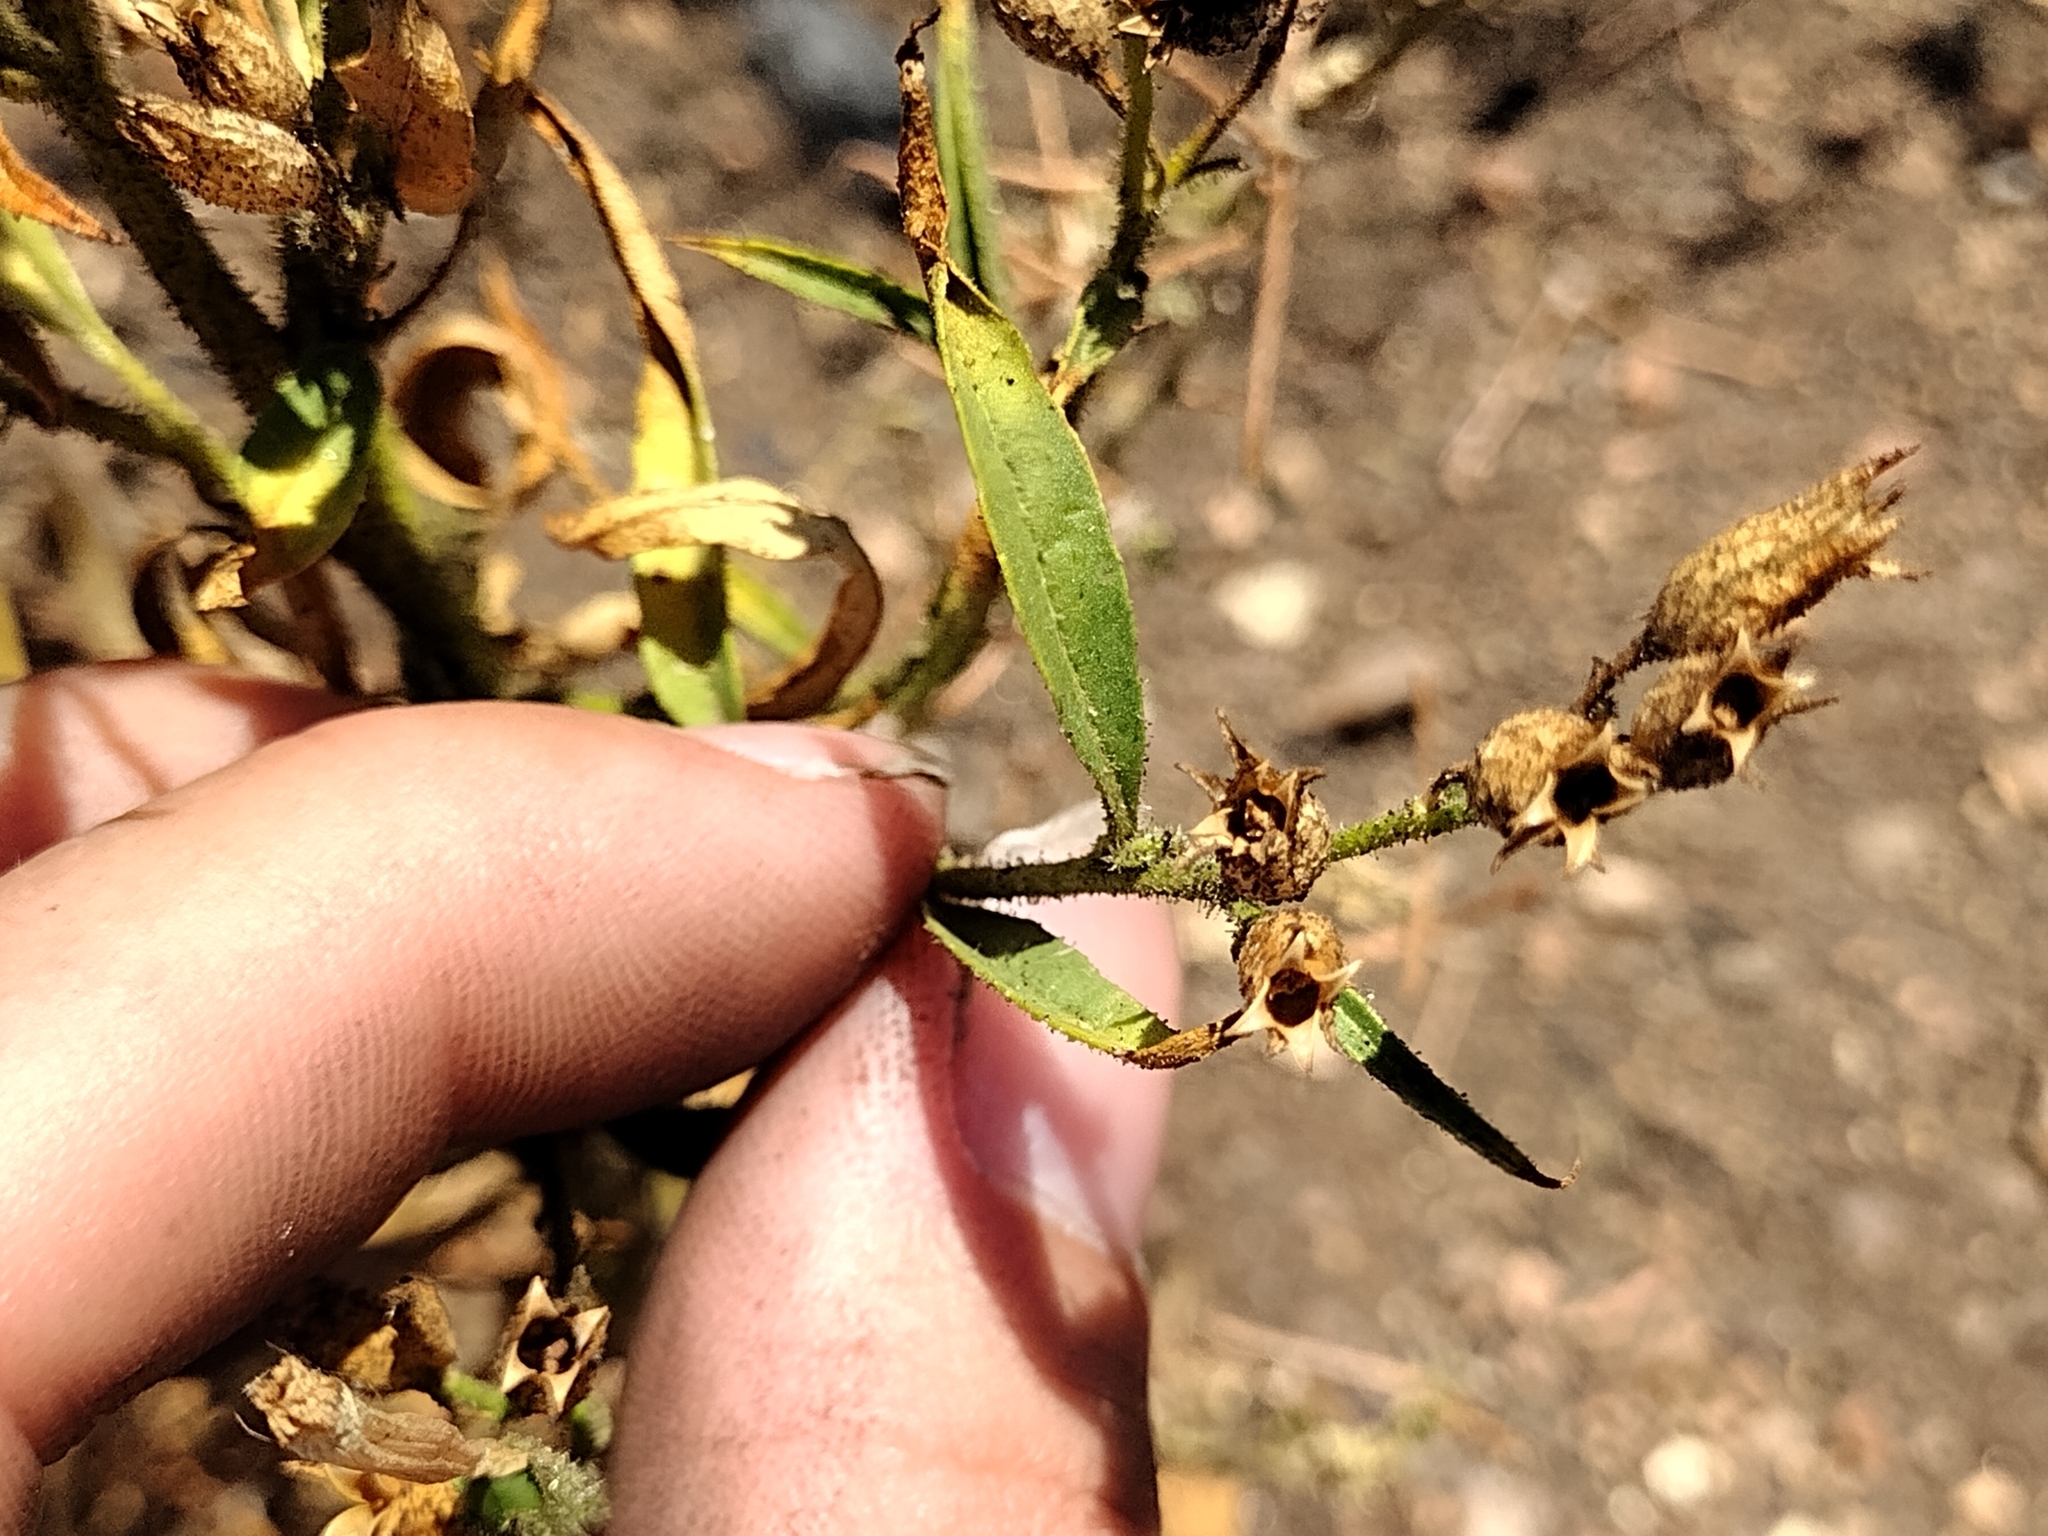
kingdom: Plantae
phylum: Tracheophyta
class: Magnoliopsida
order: Solanales
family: Solanaceae
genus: Nicotiana
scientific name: Nicotiana attenuata
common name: Coyote tobacco
